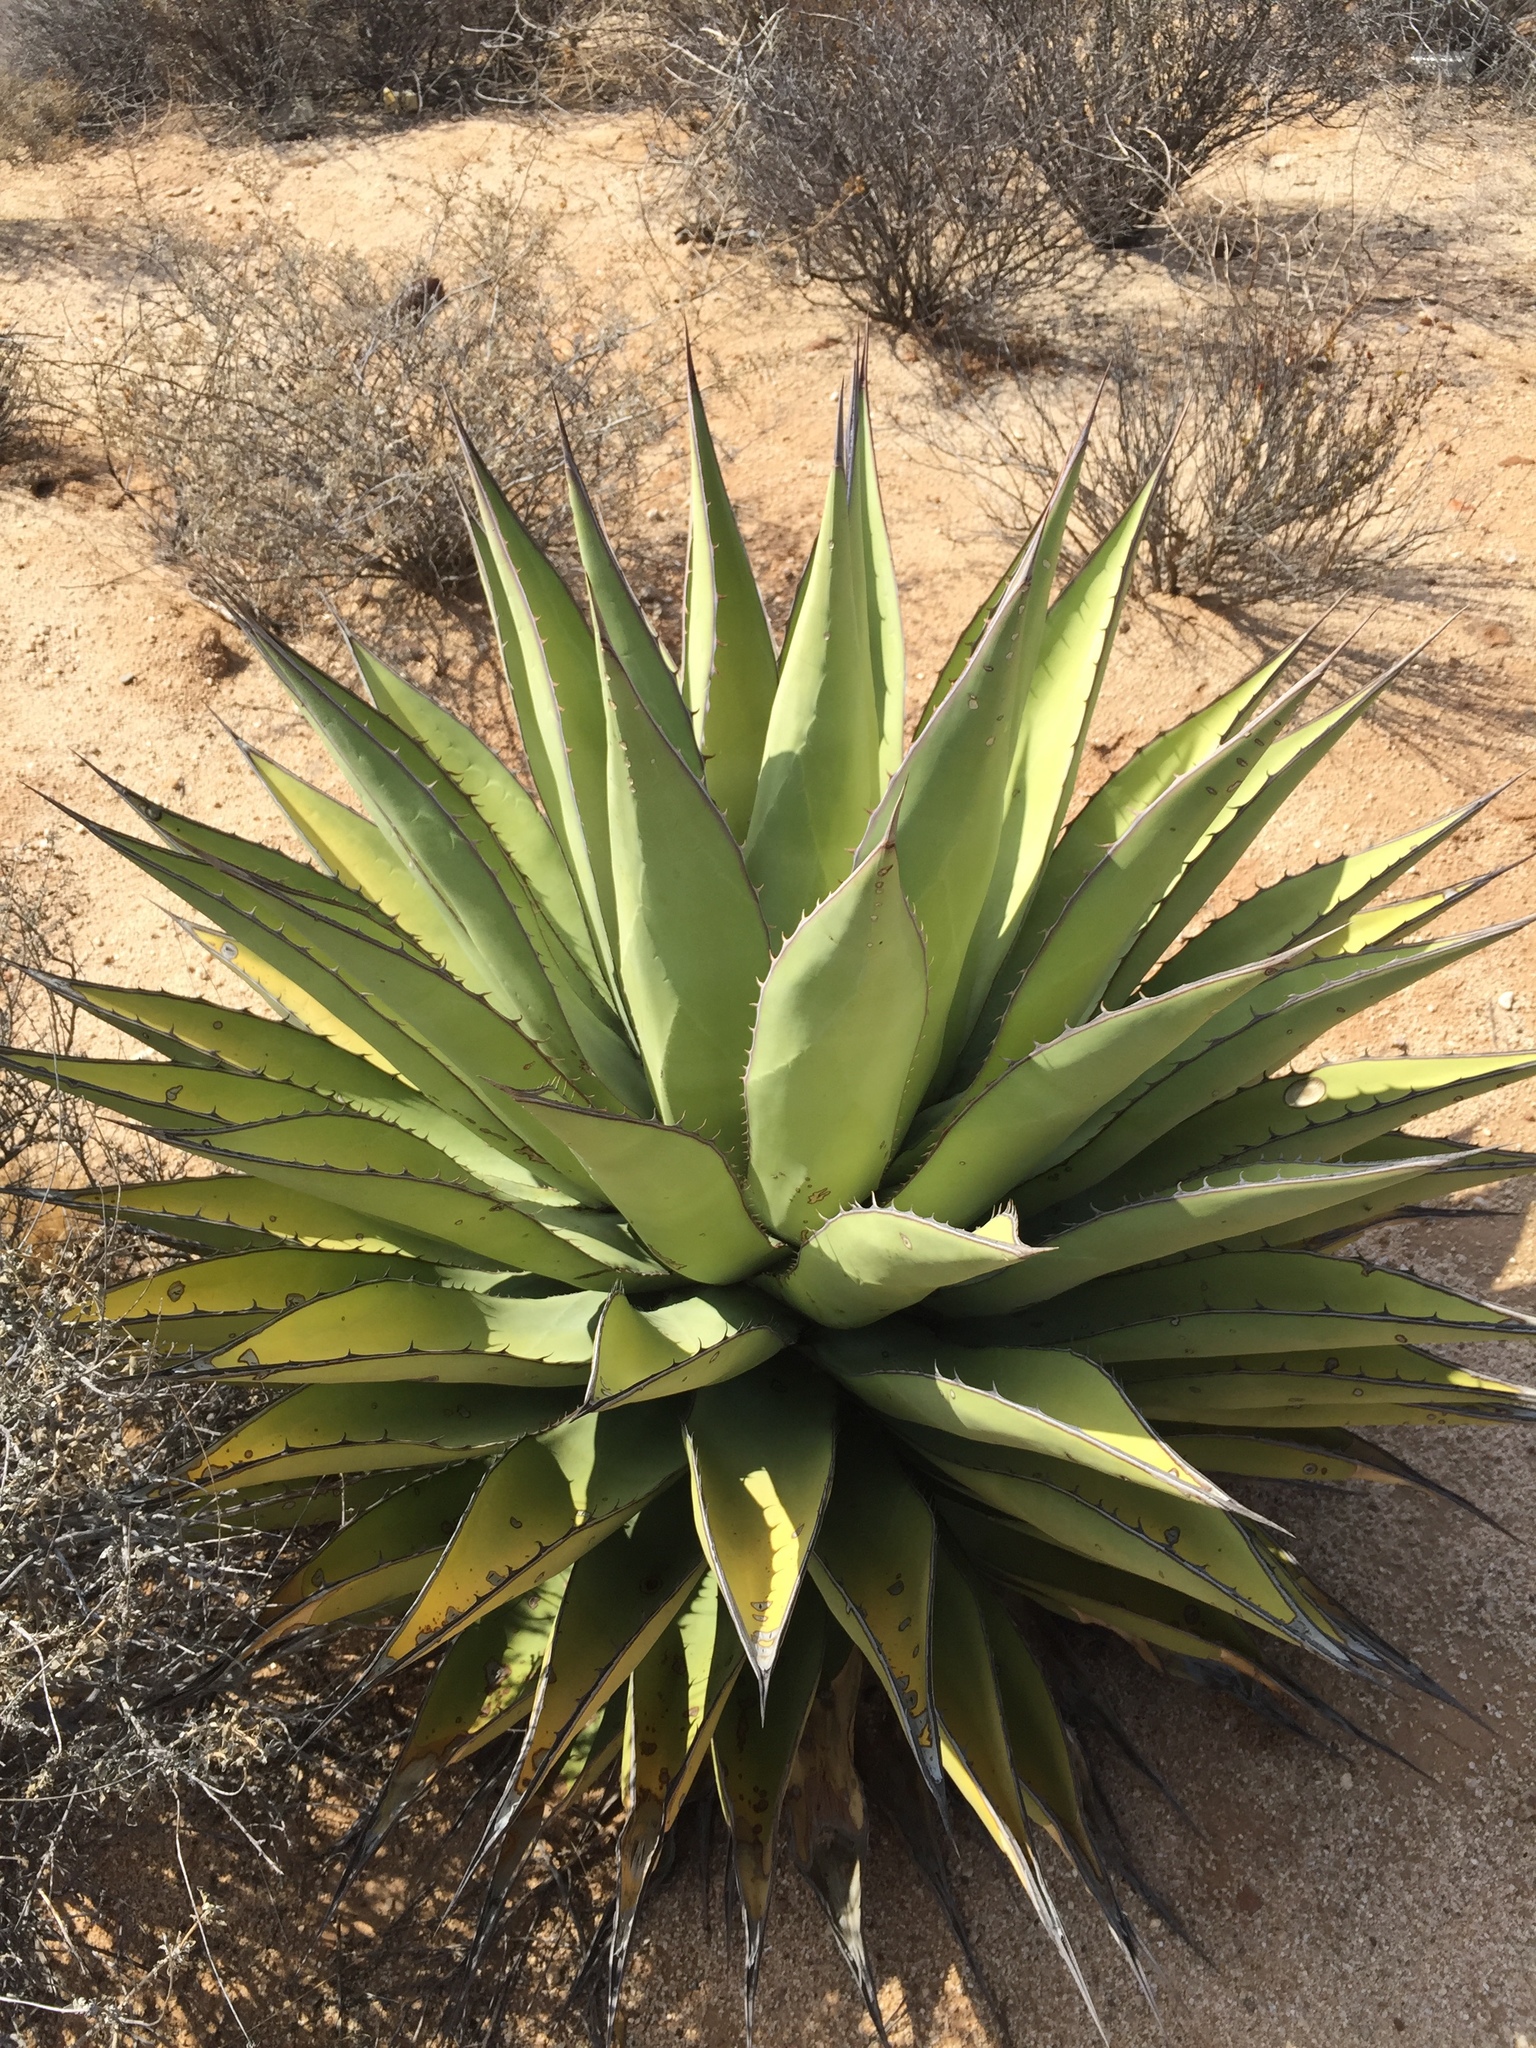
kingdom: Plantae
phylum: Tracheophyta
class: Liliopsida
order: Asparagales
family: Asparagaceae
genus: Agave
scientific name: Agave shawii
